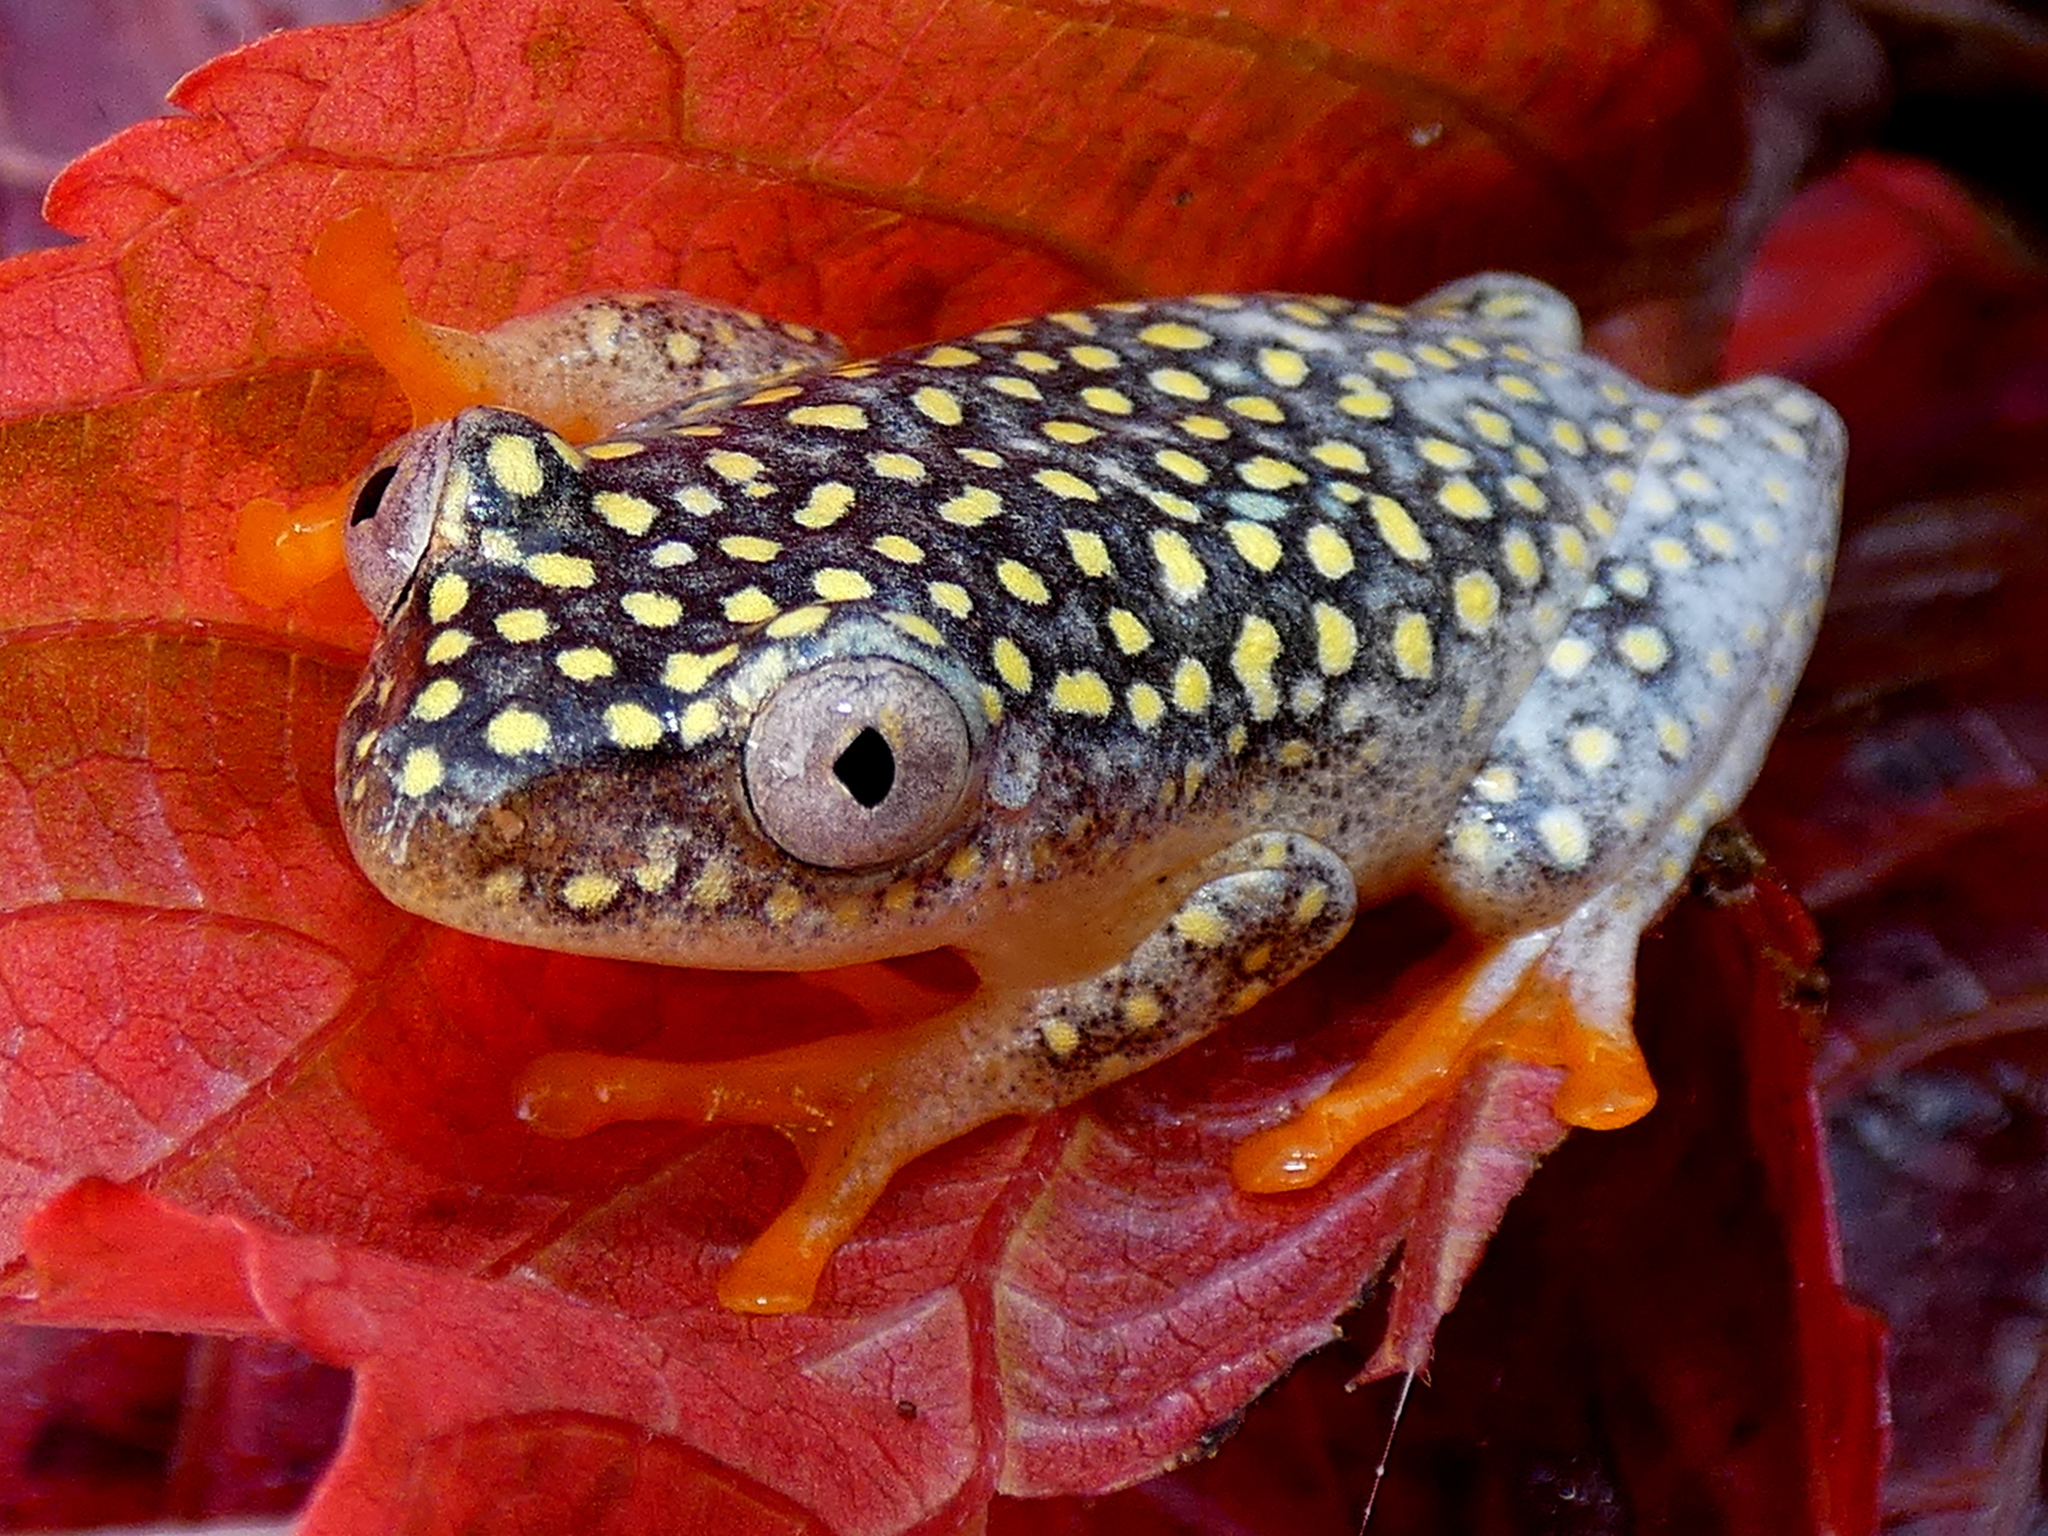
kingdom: Animalia
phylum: Chordata
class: Amphibia
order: Anura
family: Hyperoliidae
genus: Heterixalus
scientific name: Heterixalus alboguttatus
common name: Whitebelly reed frog
